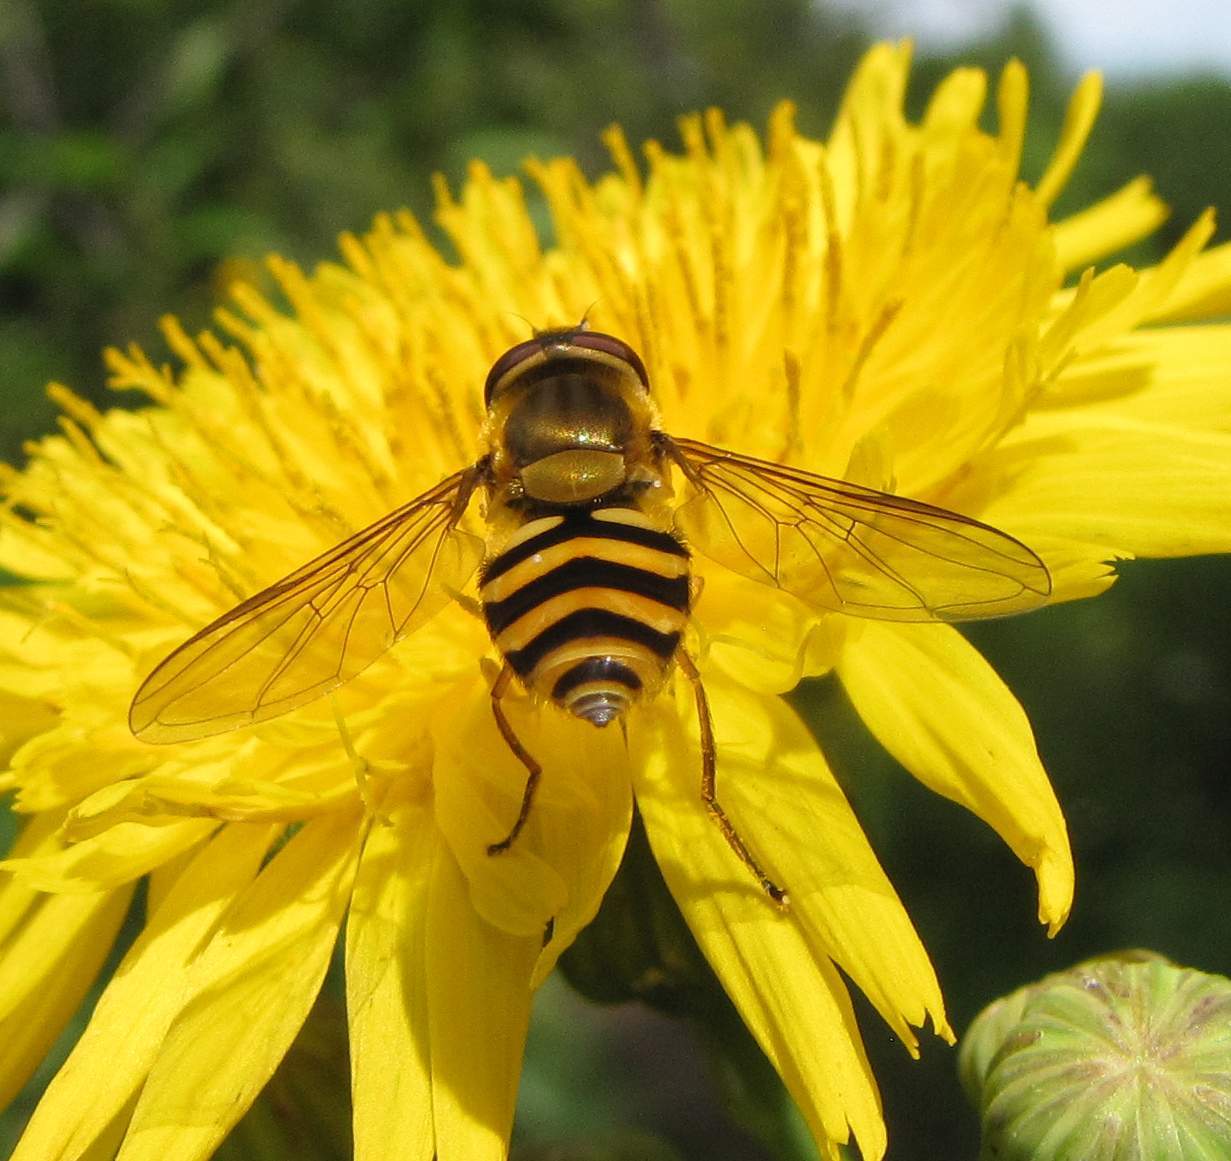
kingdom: Animalia
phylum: Arthropoda
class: Insecta
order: Diptera
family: Syrphidae
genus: Syrphus
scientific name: Syrphus
